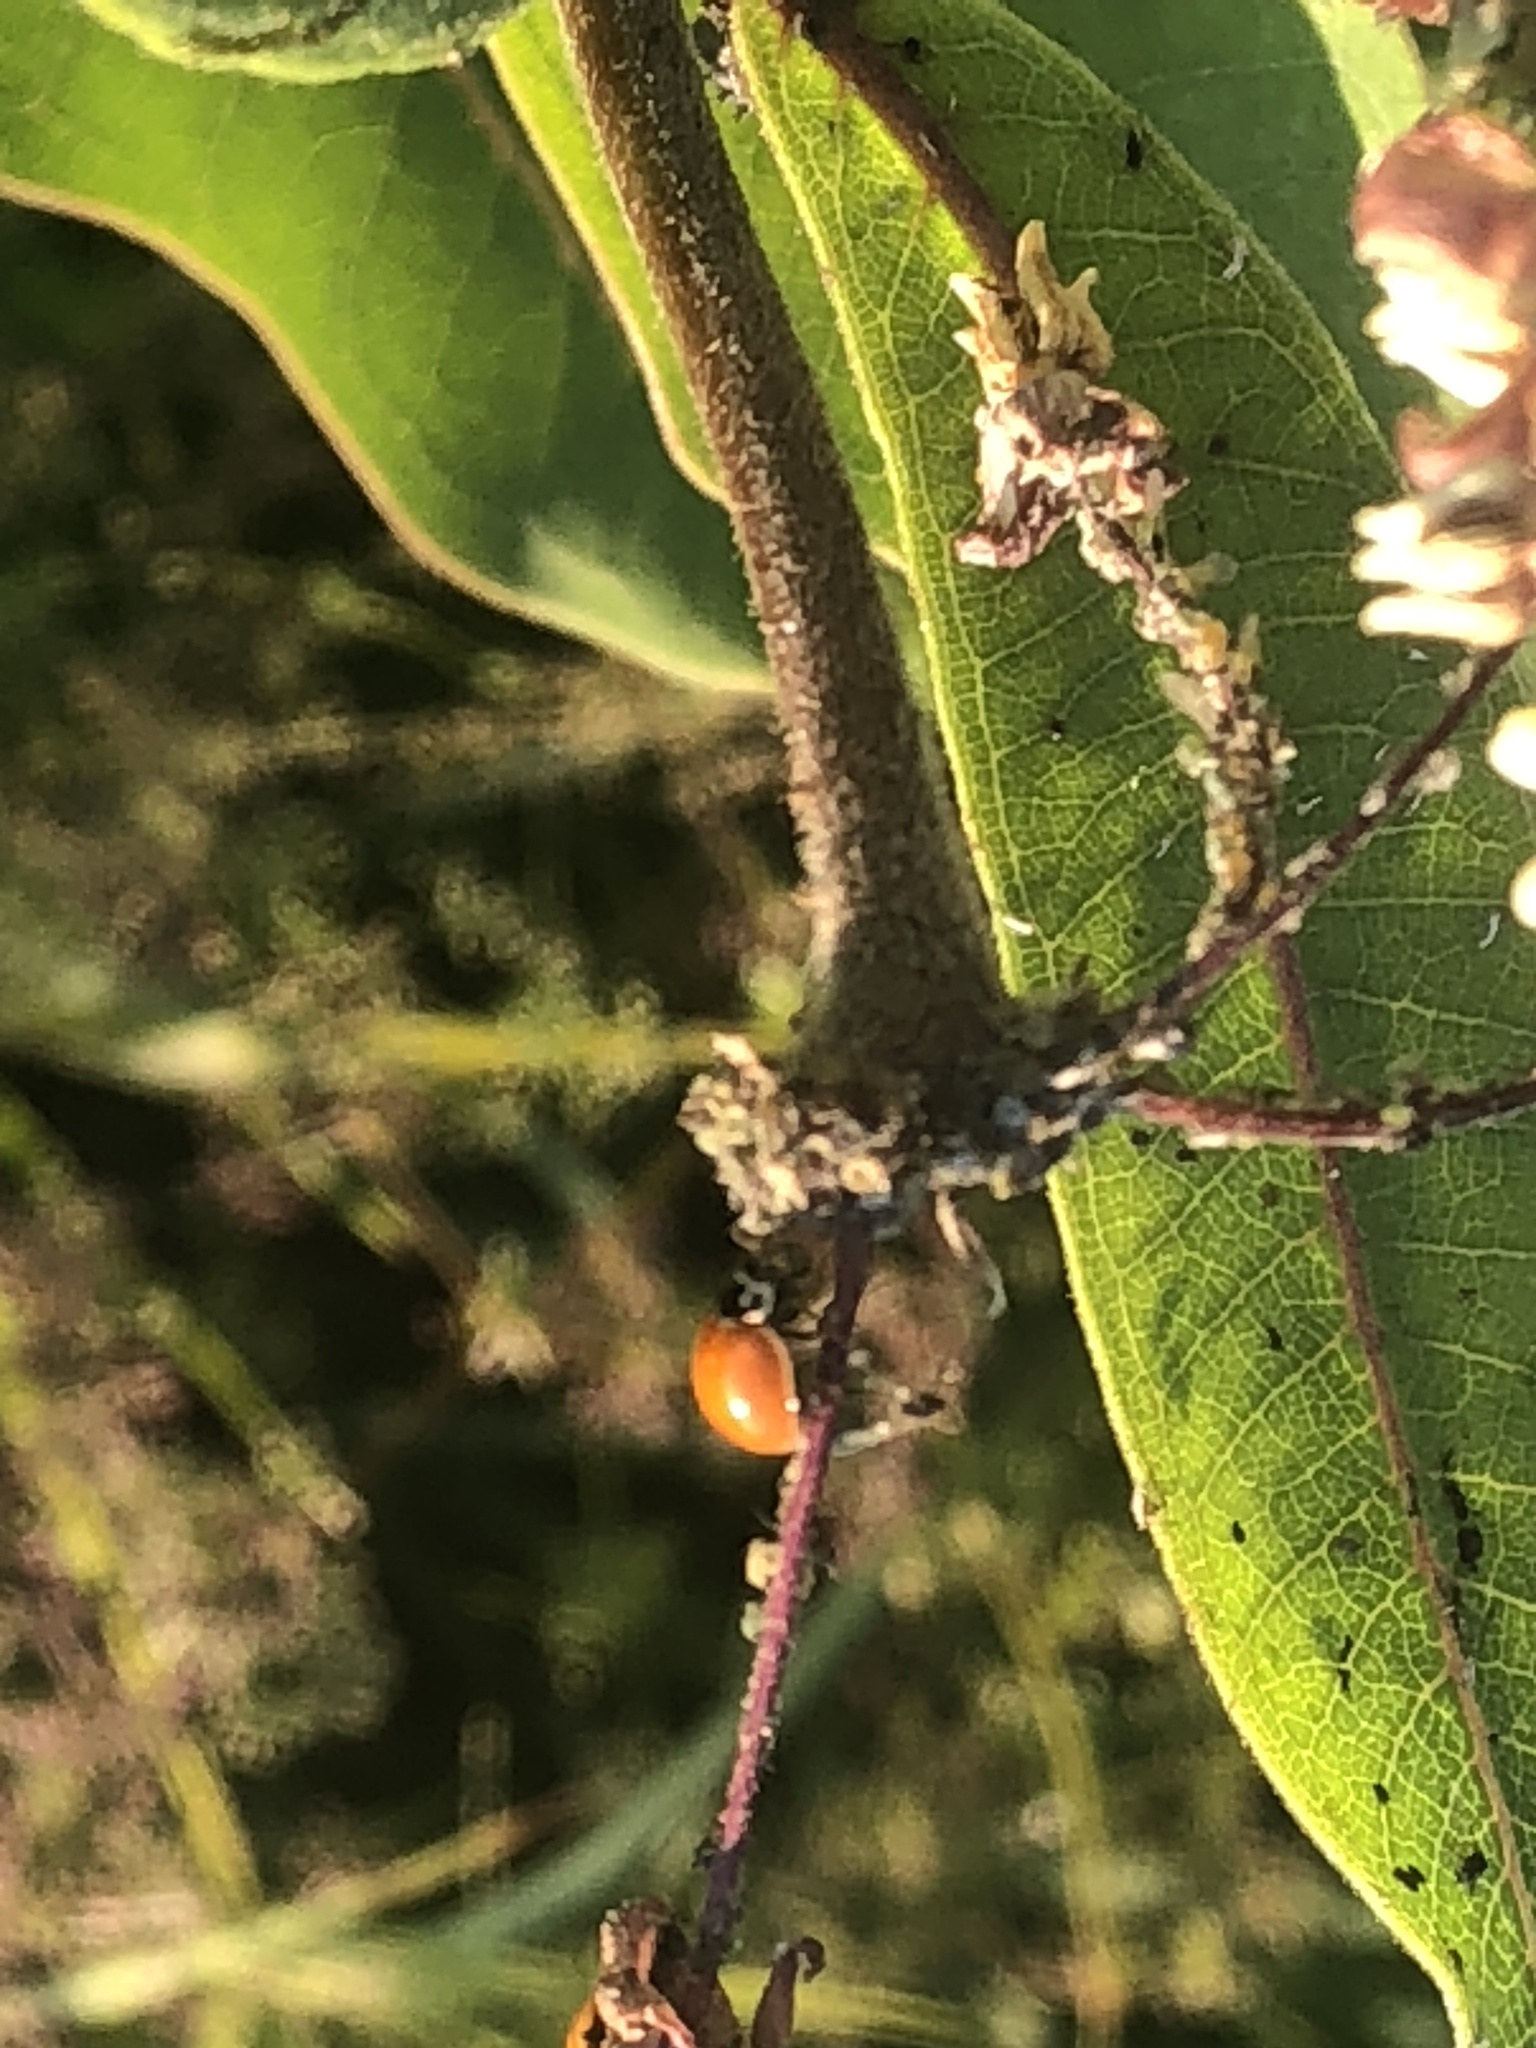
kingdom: Animalia
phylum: Arthropoda
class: Insecta
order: Coleoptera
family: Coccinellidae
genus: Cycloneda
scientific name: Cycloneda munda
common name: Polished lady beetle
